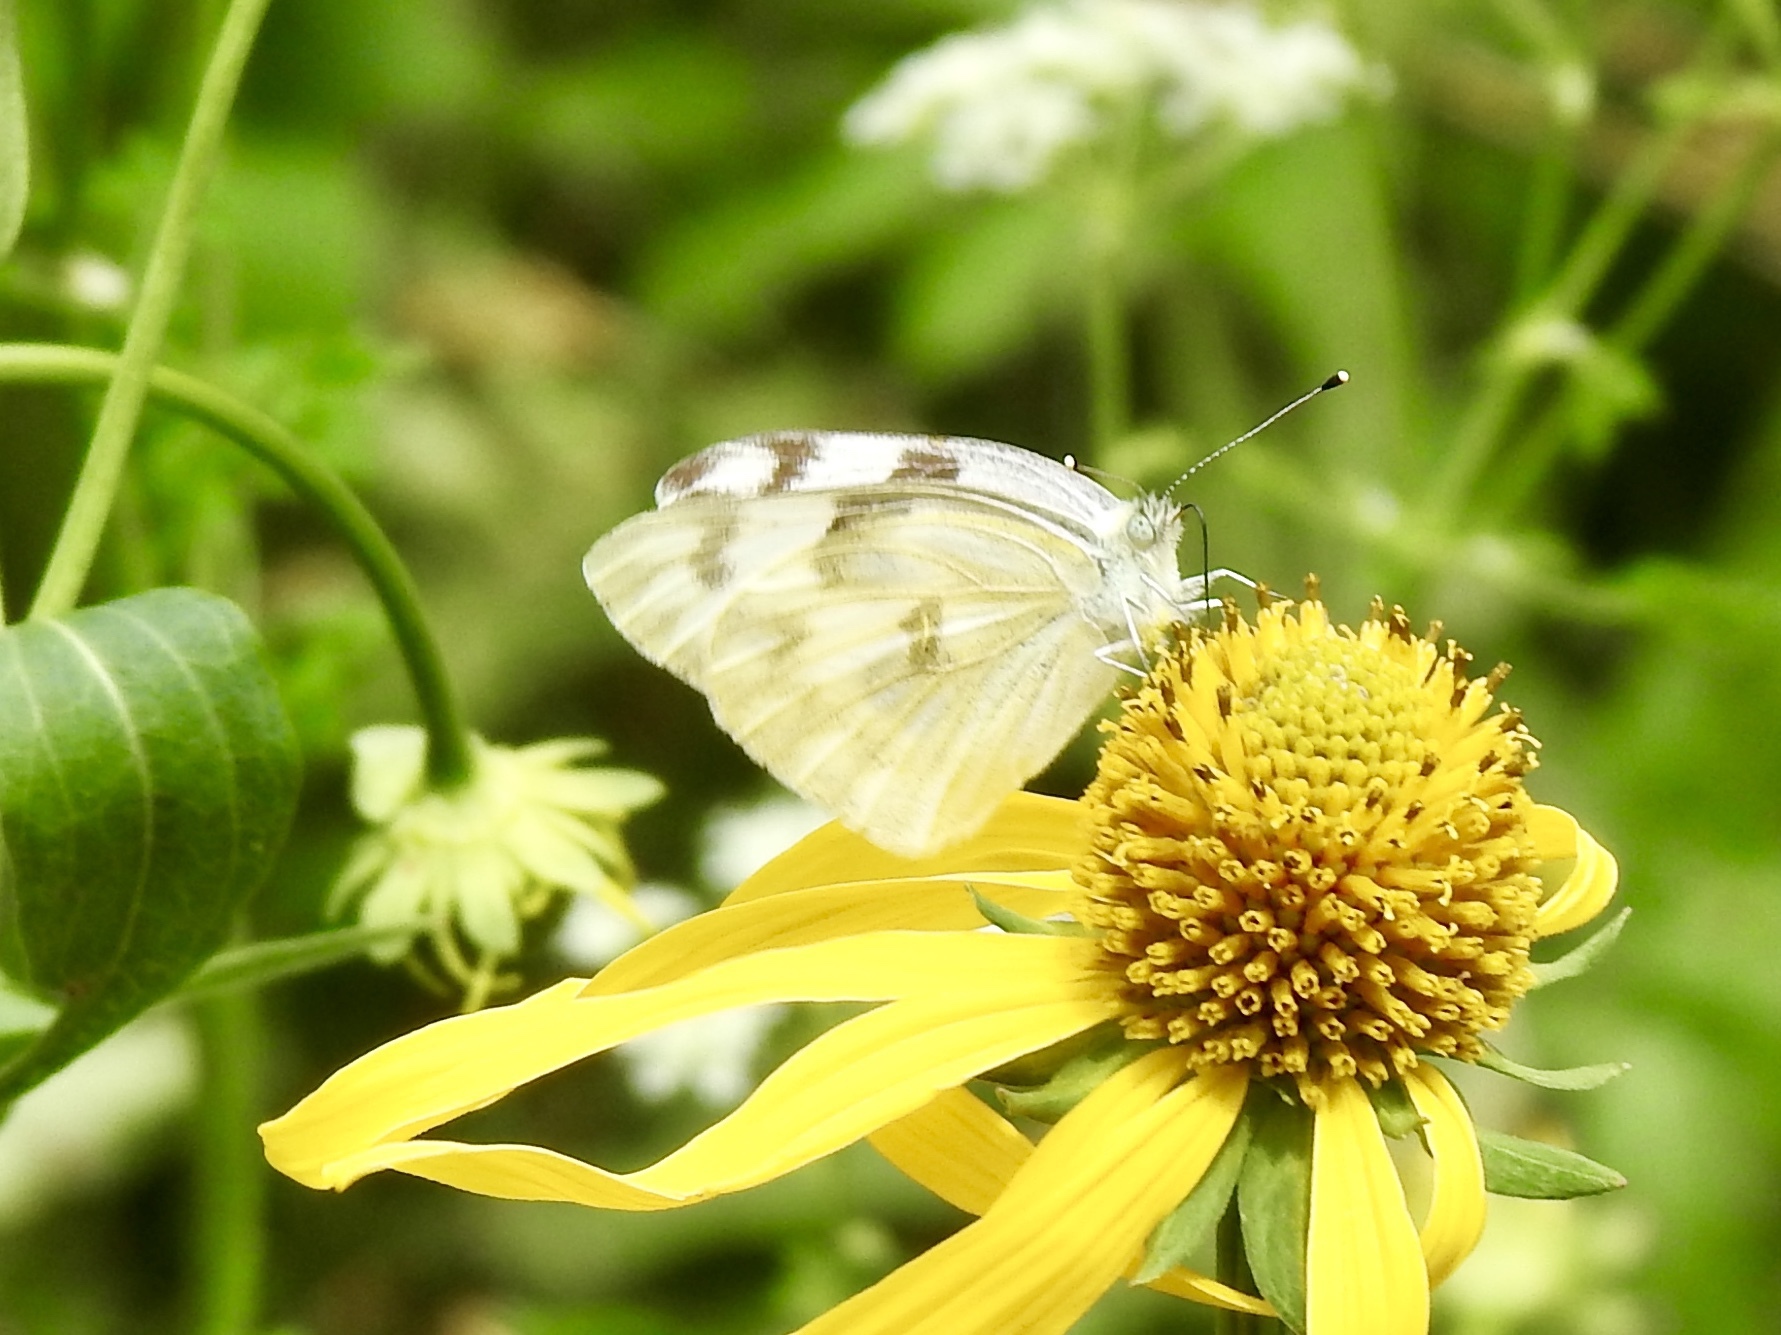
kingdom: Animalia
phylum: Arthropoda
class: Insecta
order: Lepidoptera
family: Pieridae
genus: Pontia
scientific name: Pontia protodice
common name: Checkered white
